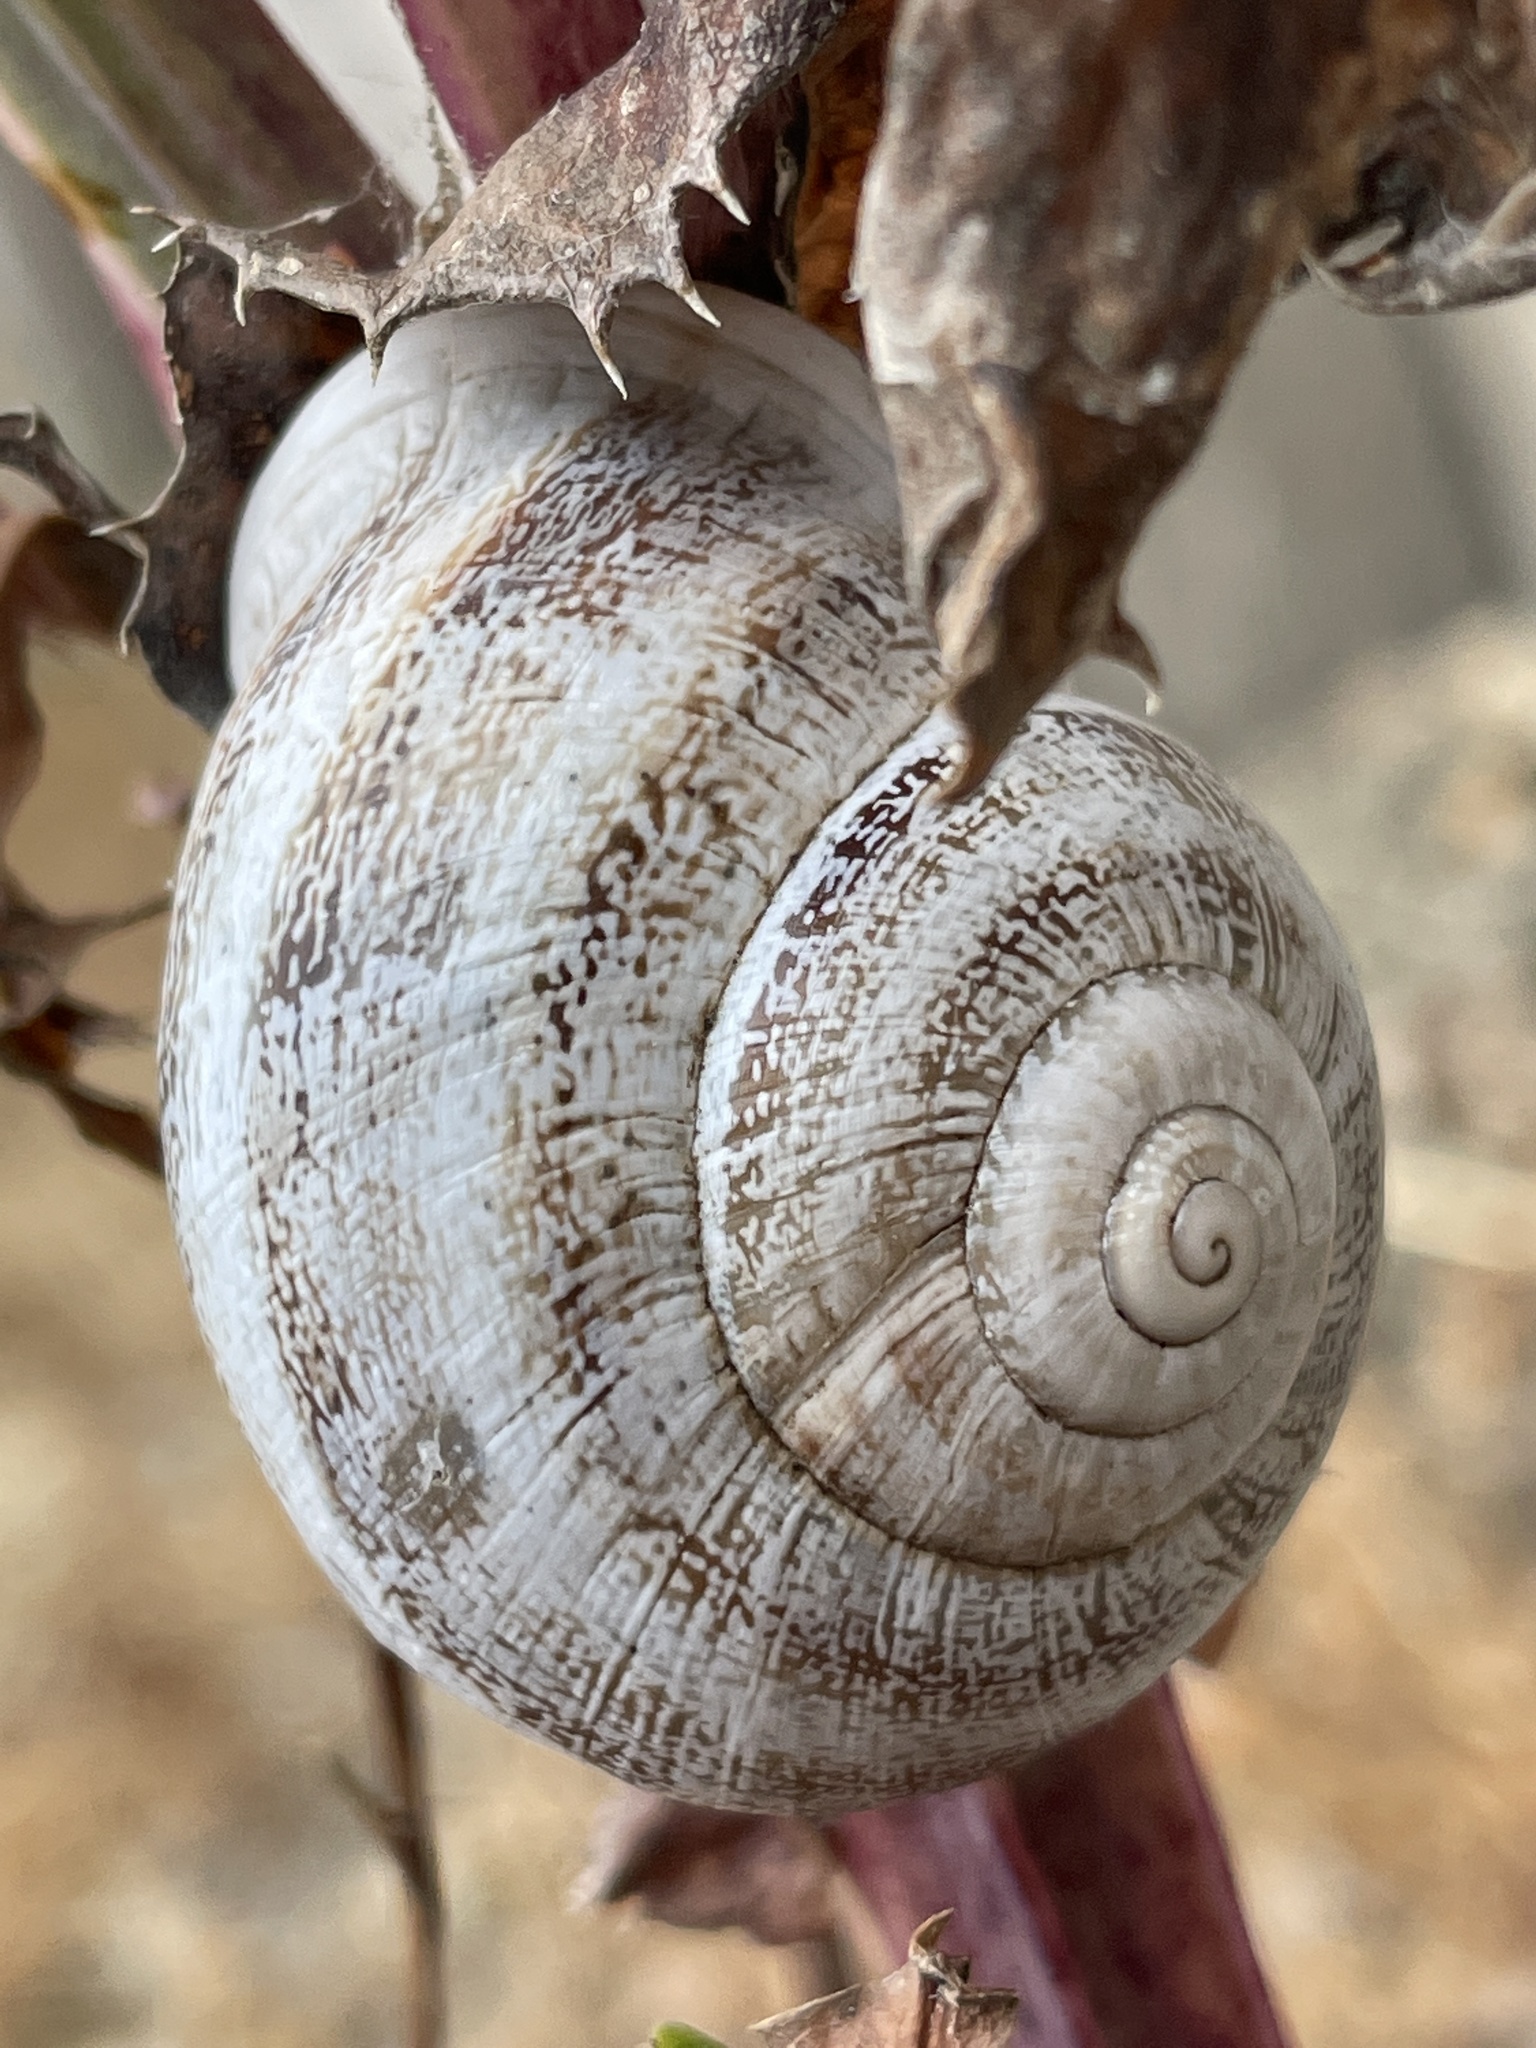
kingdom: Animalia
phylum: Mollusca
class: Gastropoda
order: Stylommatophora
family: Helicidae
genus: Otala
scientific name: Otala lactea
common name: Milk snail
